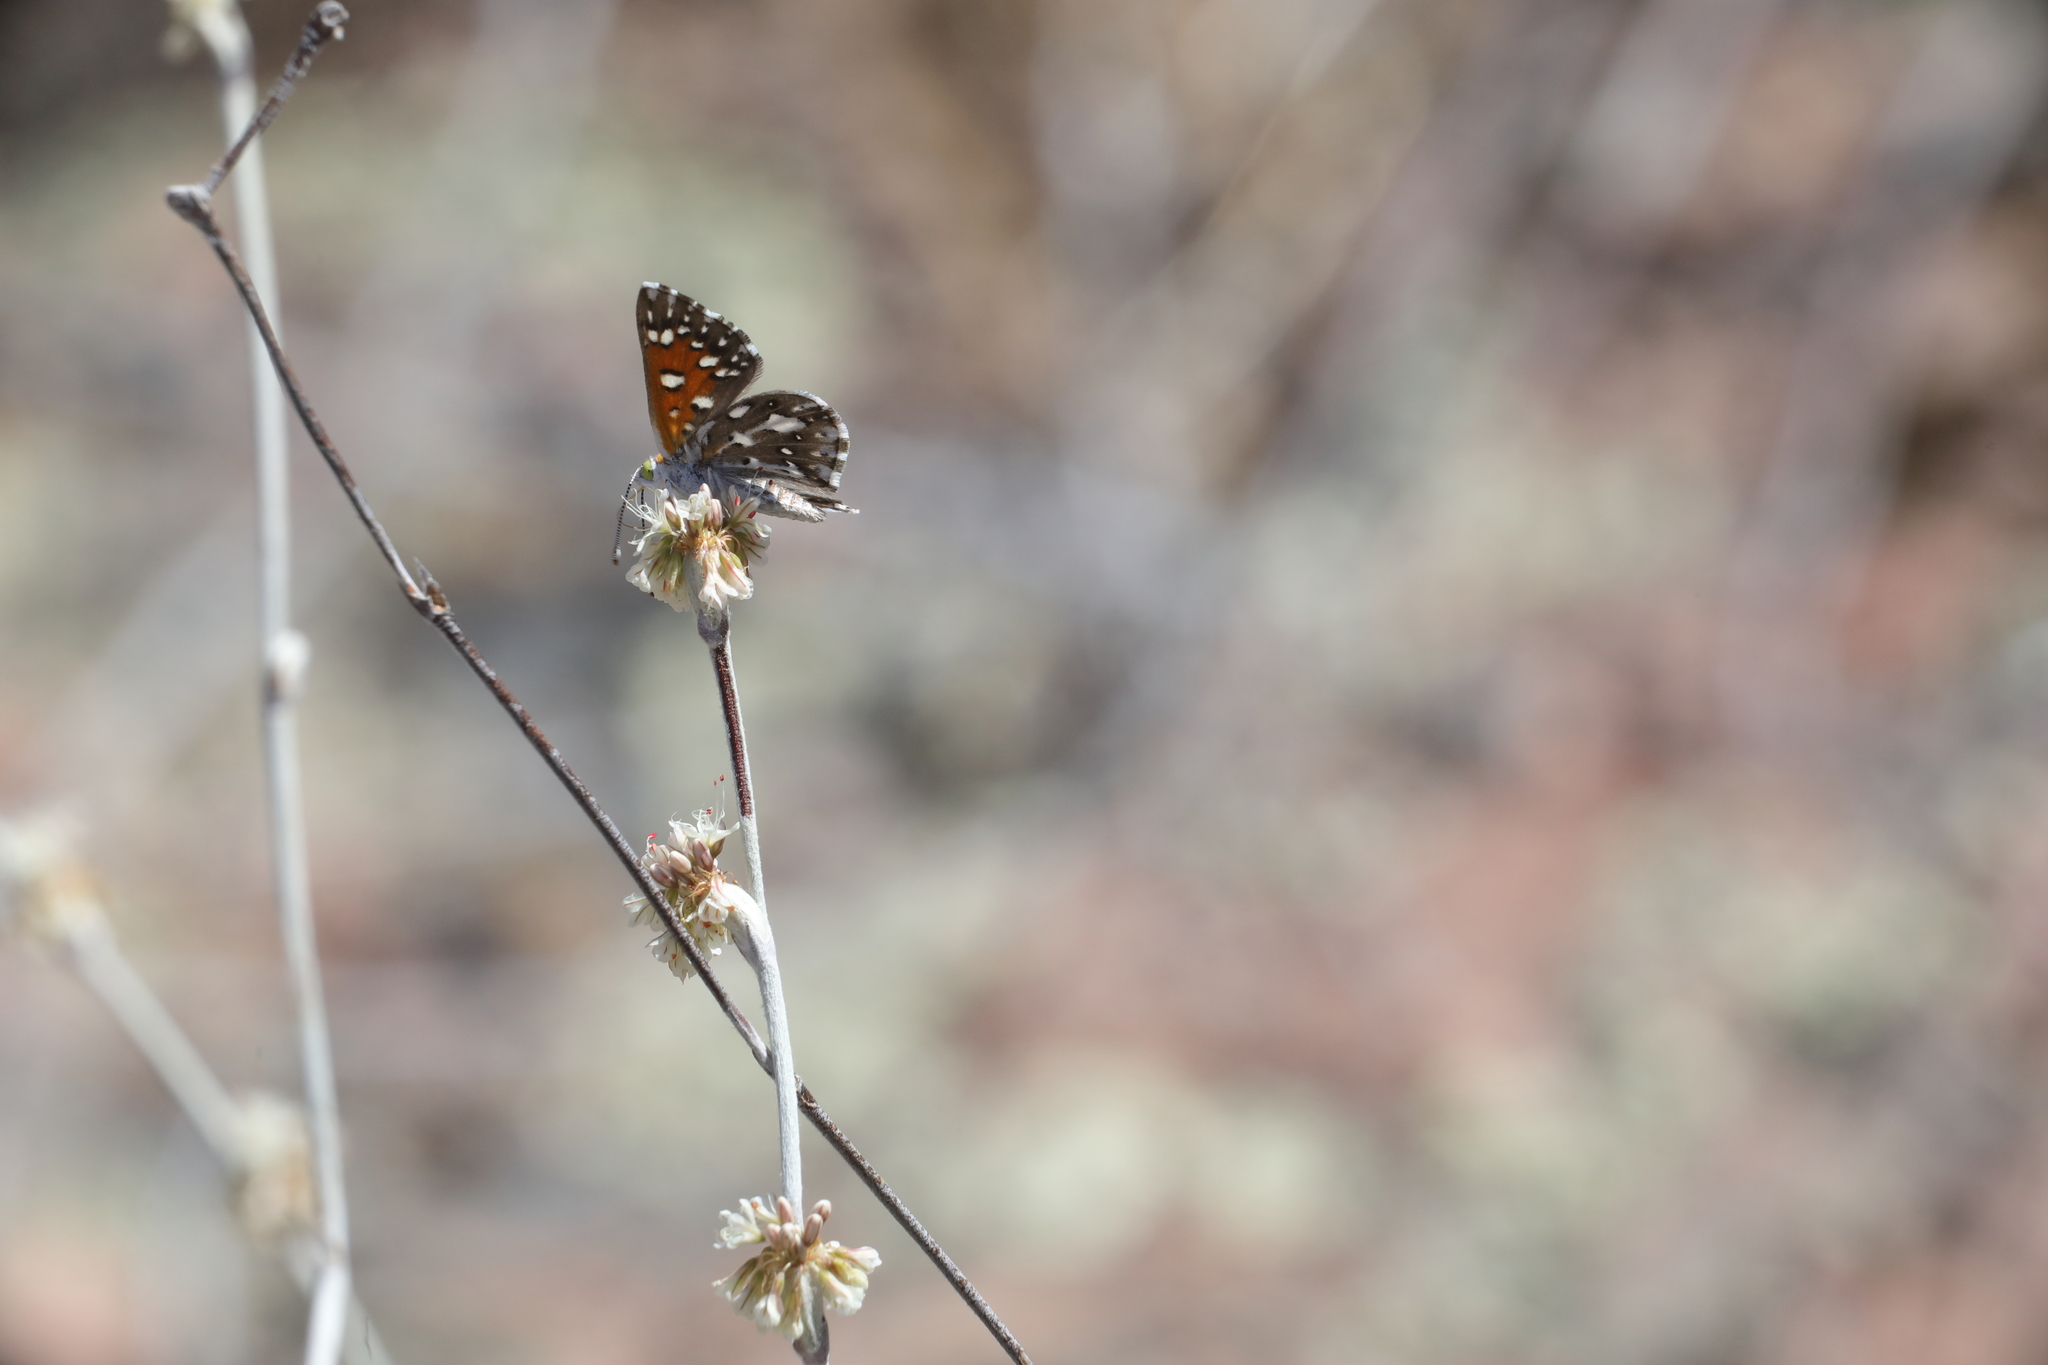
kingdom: Animalia
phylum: Arthropoda
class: Insecta
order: Lepidoptera
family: Riodinidae
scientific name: Riodinidae
